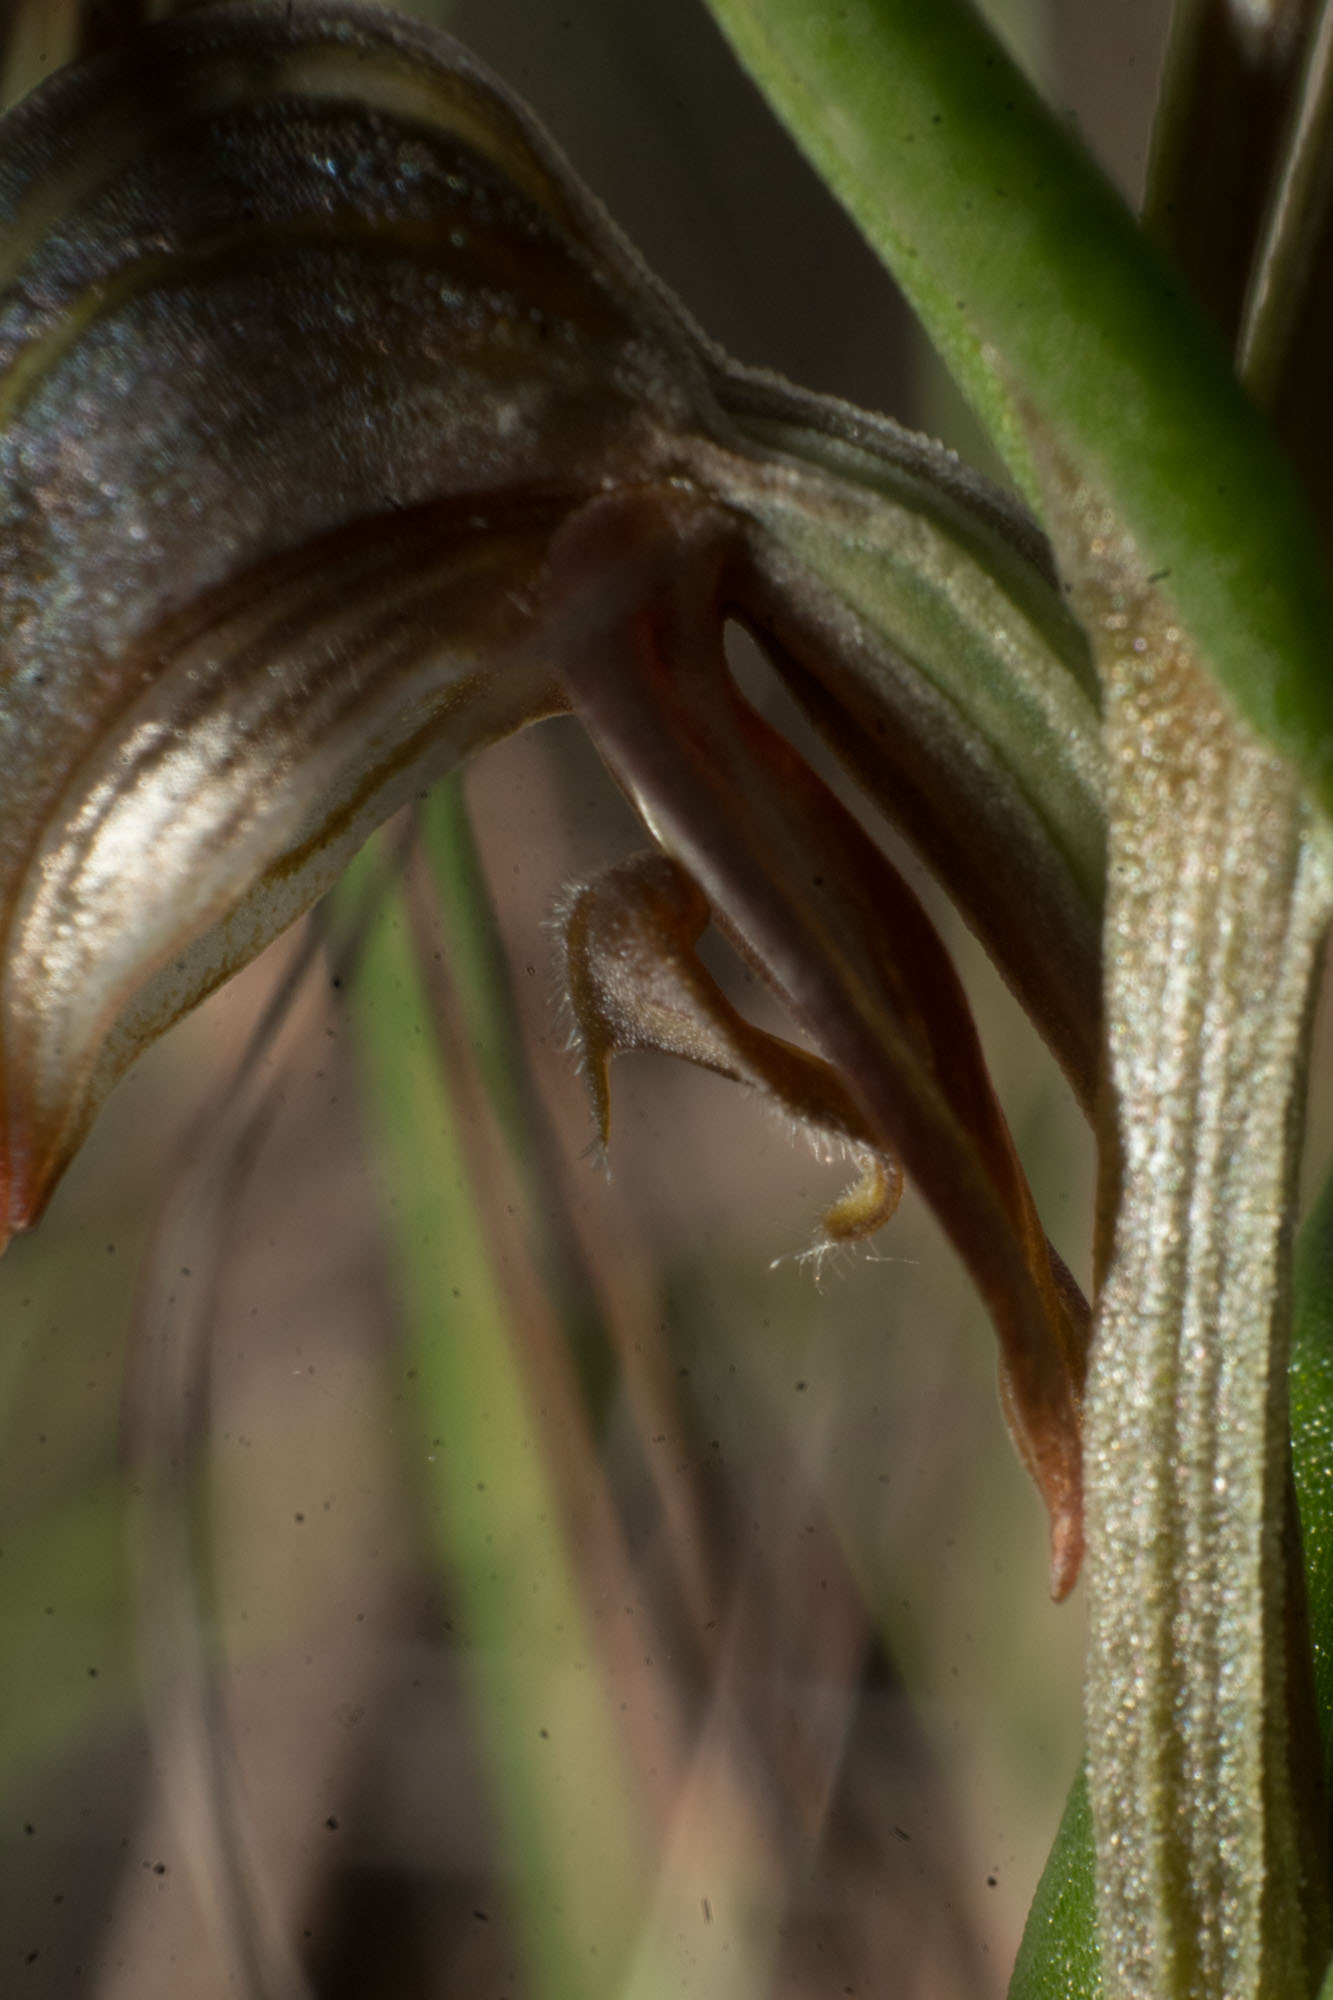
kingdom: Plantae
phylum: Tracheophyta
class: Liliopsida
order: Asparagales
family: Orchidaceae
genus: Pterostylis
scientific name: Pterostylis sanguinea
